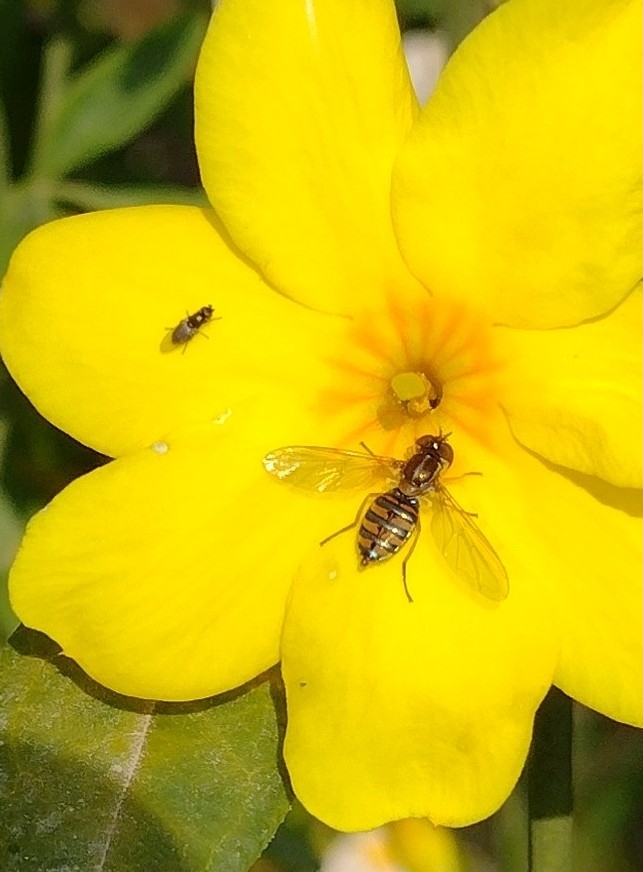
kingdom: Animalia
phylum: Arthropoda
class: Insecta
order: Diptera
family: Syrphidae
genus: Toxomerus
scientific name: Toxomerus
